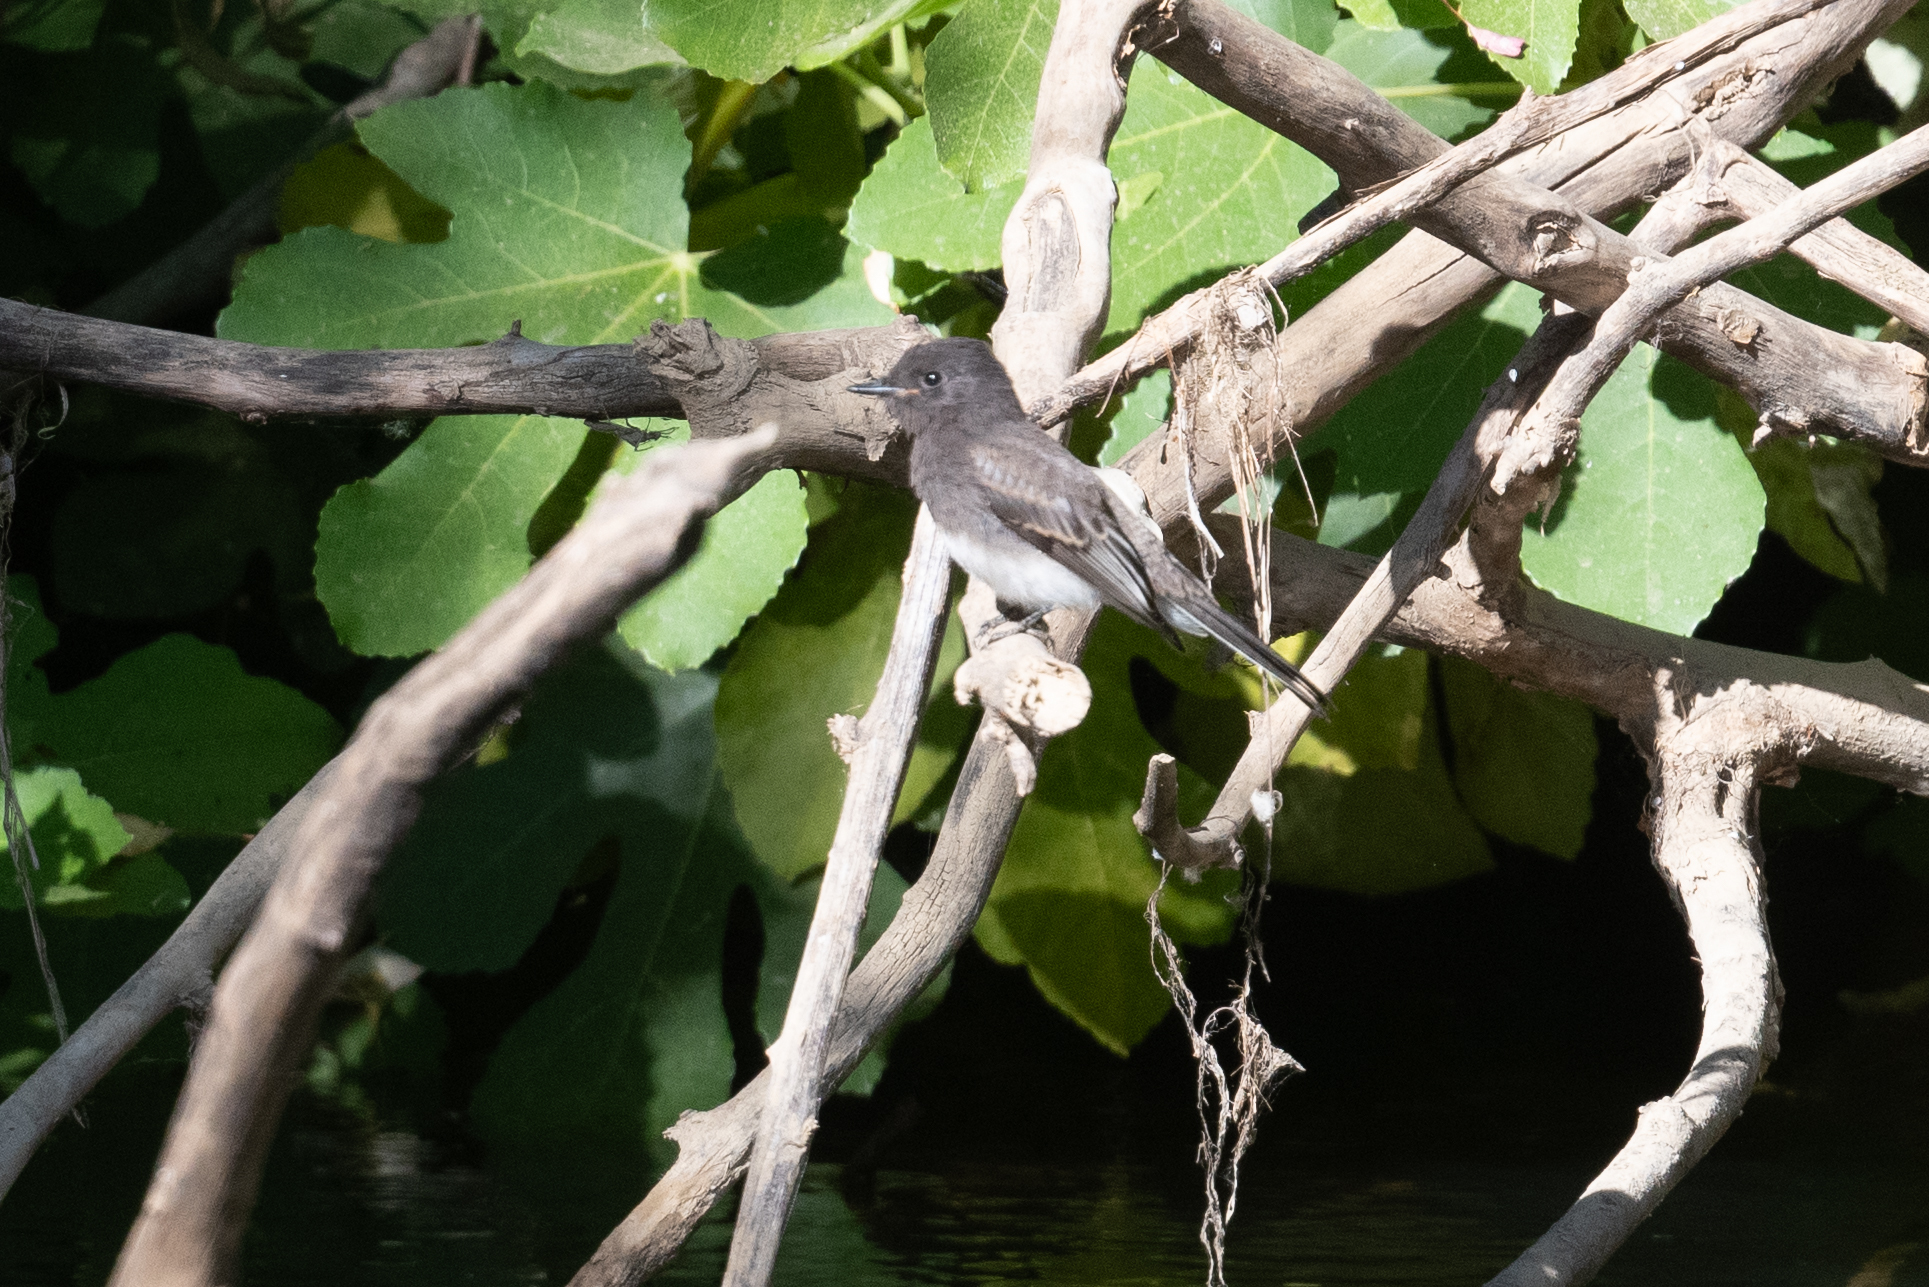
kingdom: Animalia
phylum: Chordata
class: Aves
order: Passeriformes
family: Tyrannidae
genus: Sayornis
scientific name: Sayornis nigricans
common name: Black phoebe
